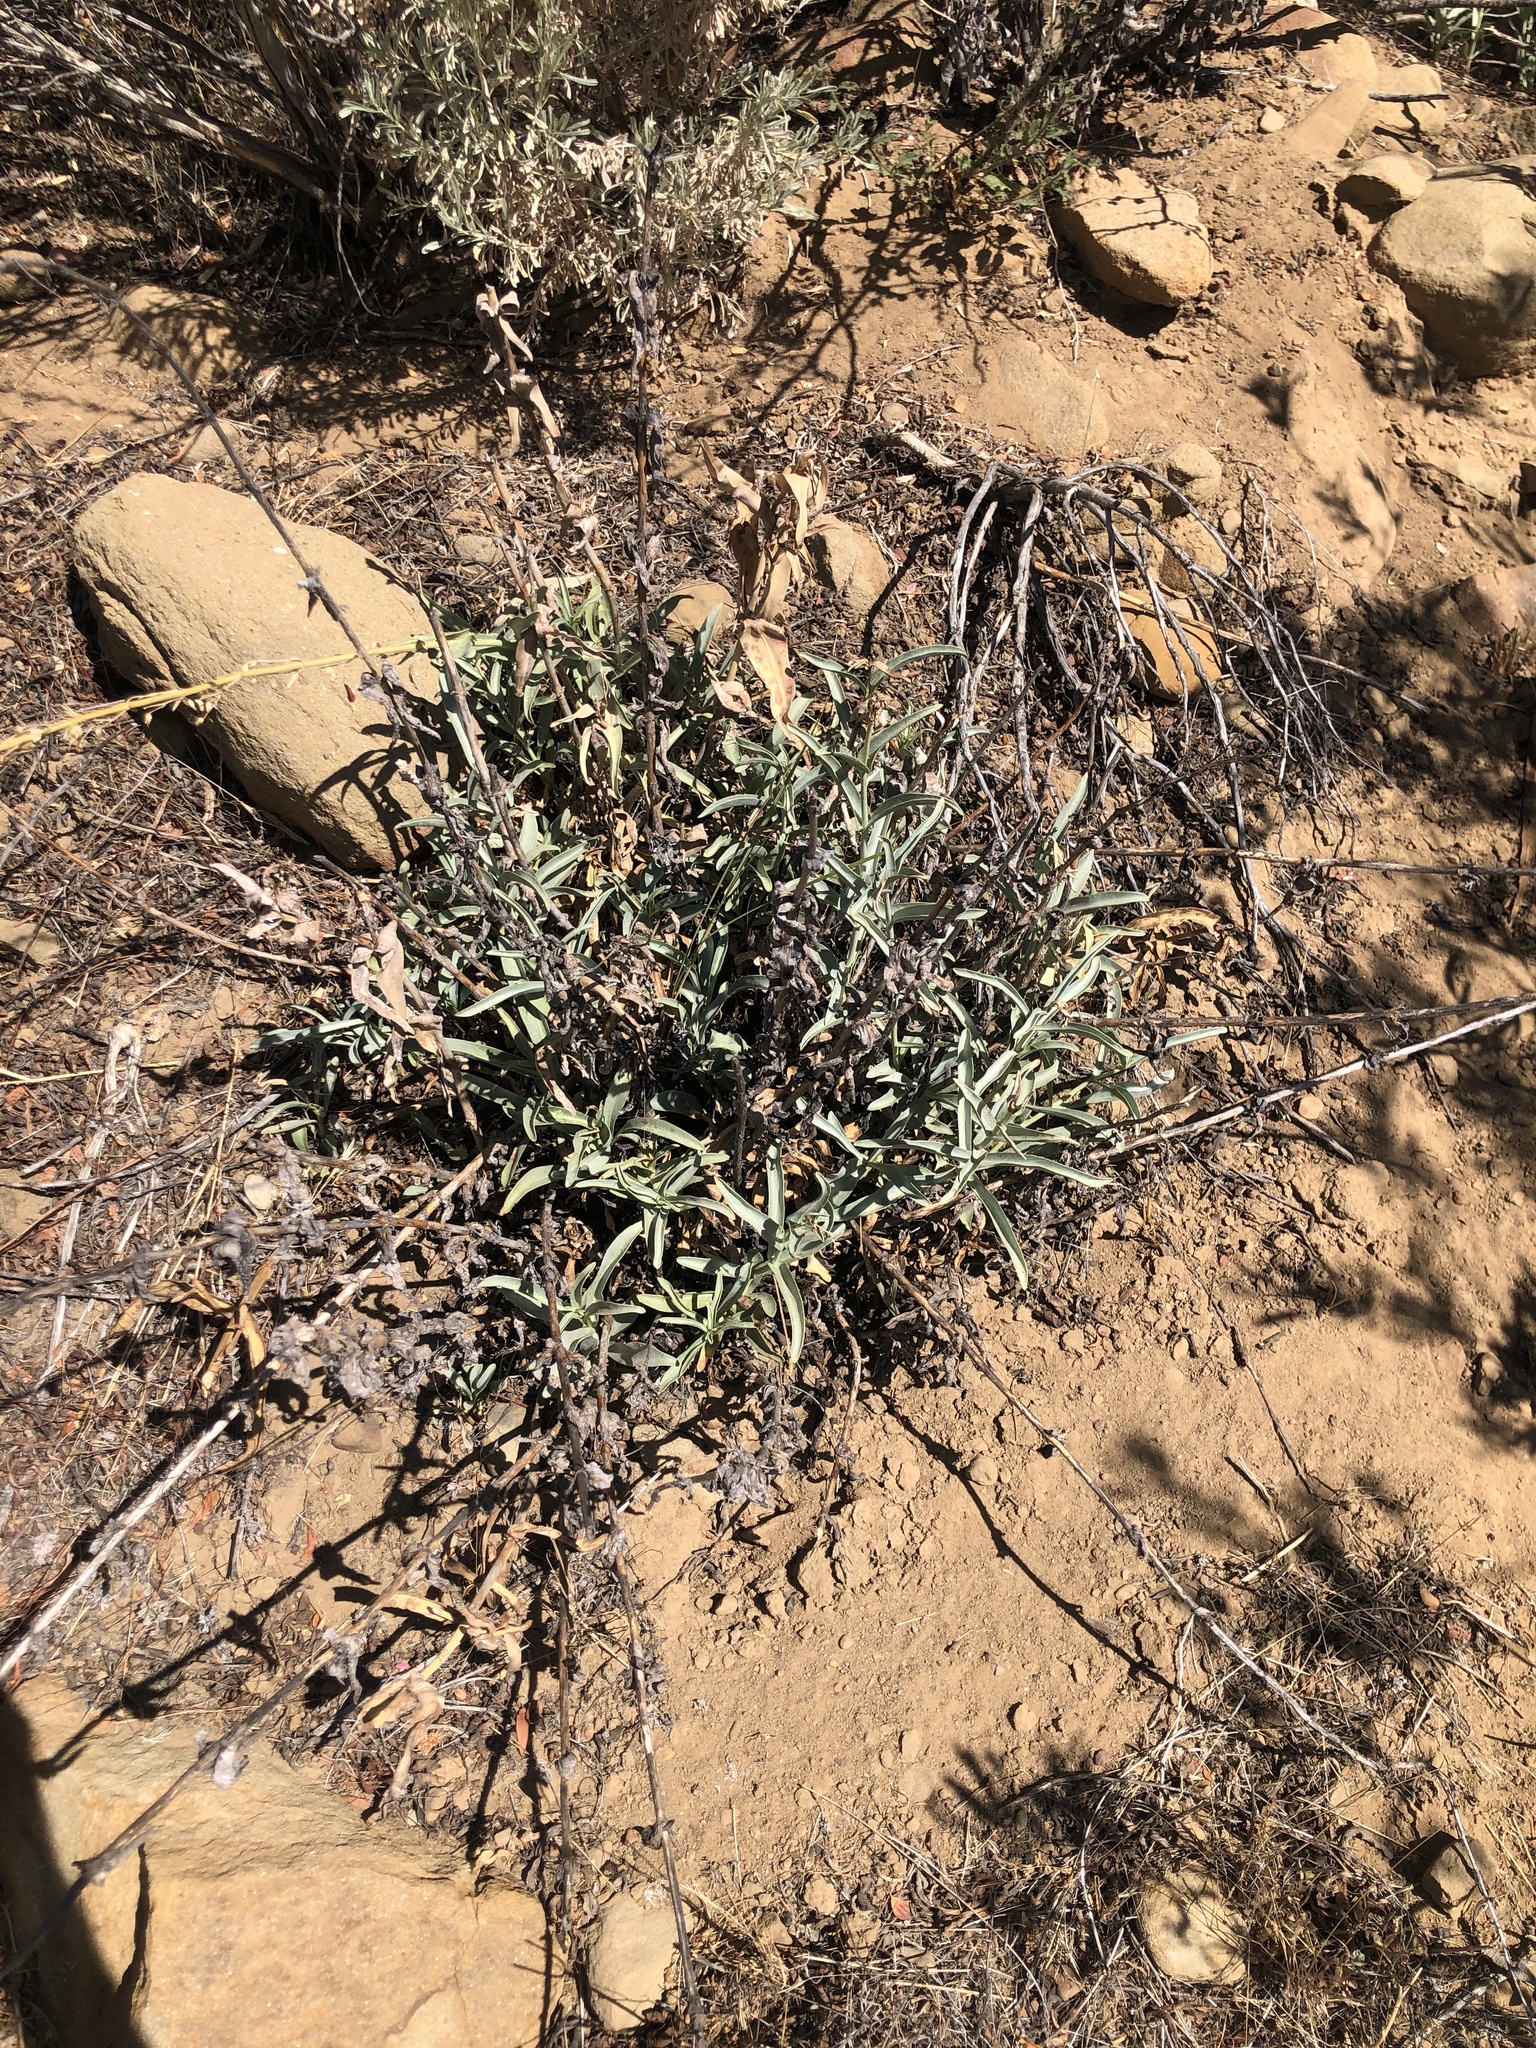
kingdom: Plantae
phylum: Tracheophyta
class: Magnoliopsida
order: Lamiales
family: Plantaginaceae
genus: Penstemon
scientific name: Penstemon centranthifolius
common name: Scarlet bugler
